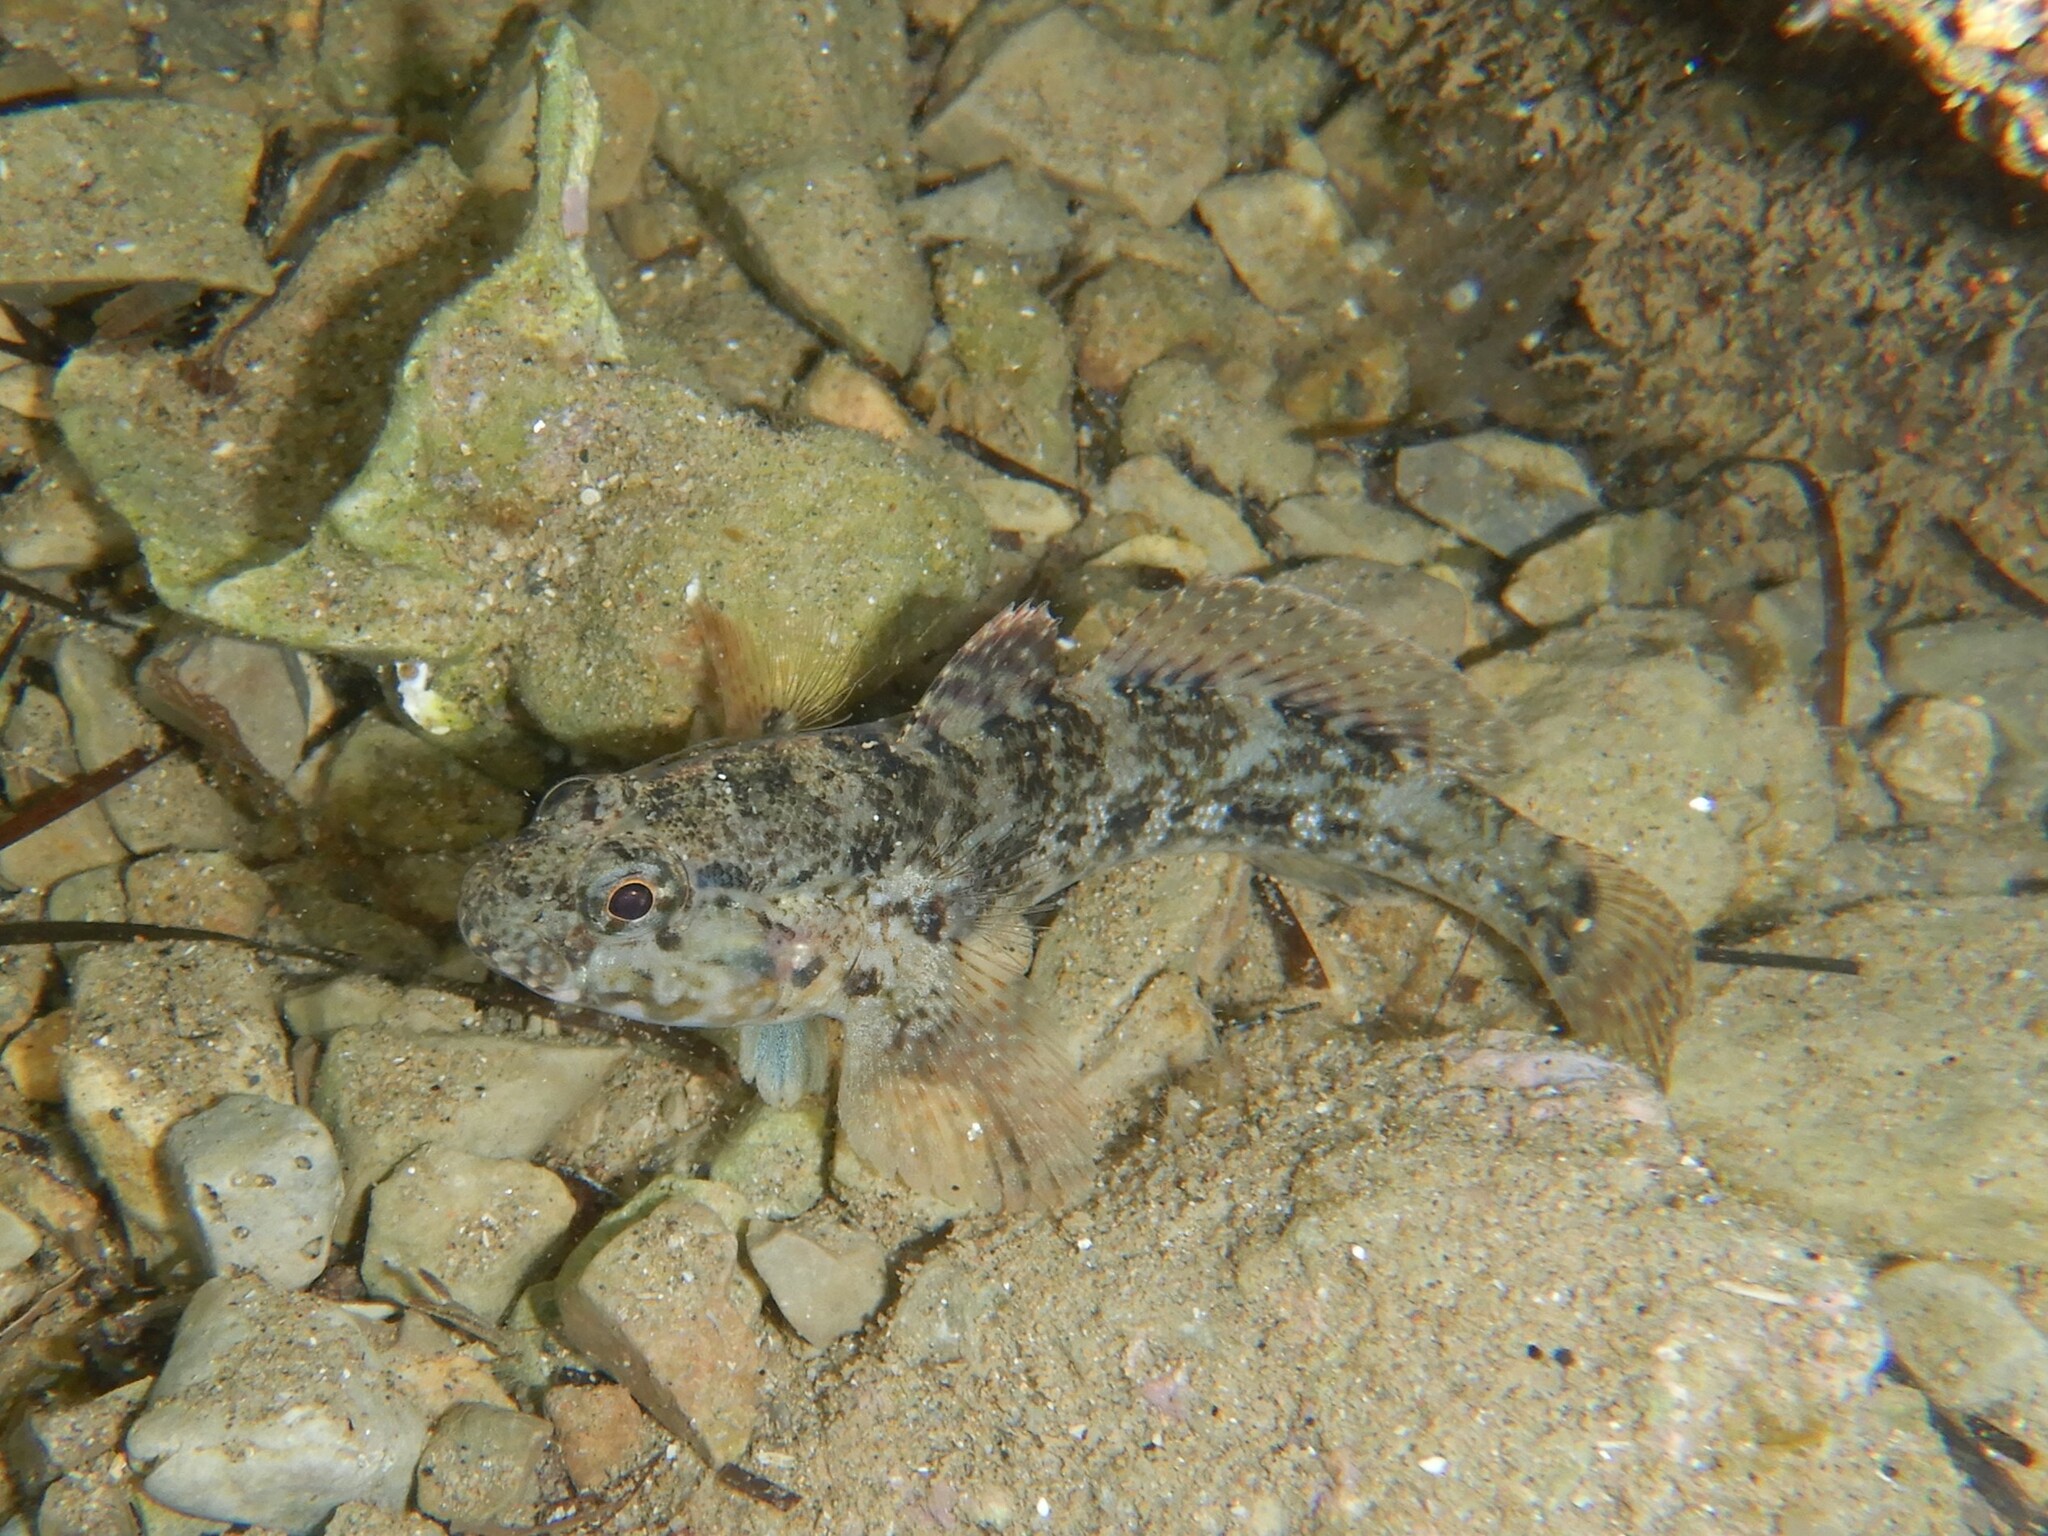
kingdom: Animalia
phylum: Chordata
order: Perciformes
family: Gobiidae
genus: Gobius
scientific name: Gobius paganellus
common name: Rock goby
